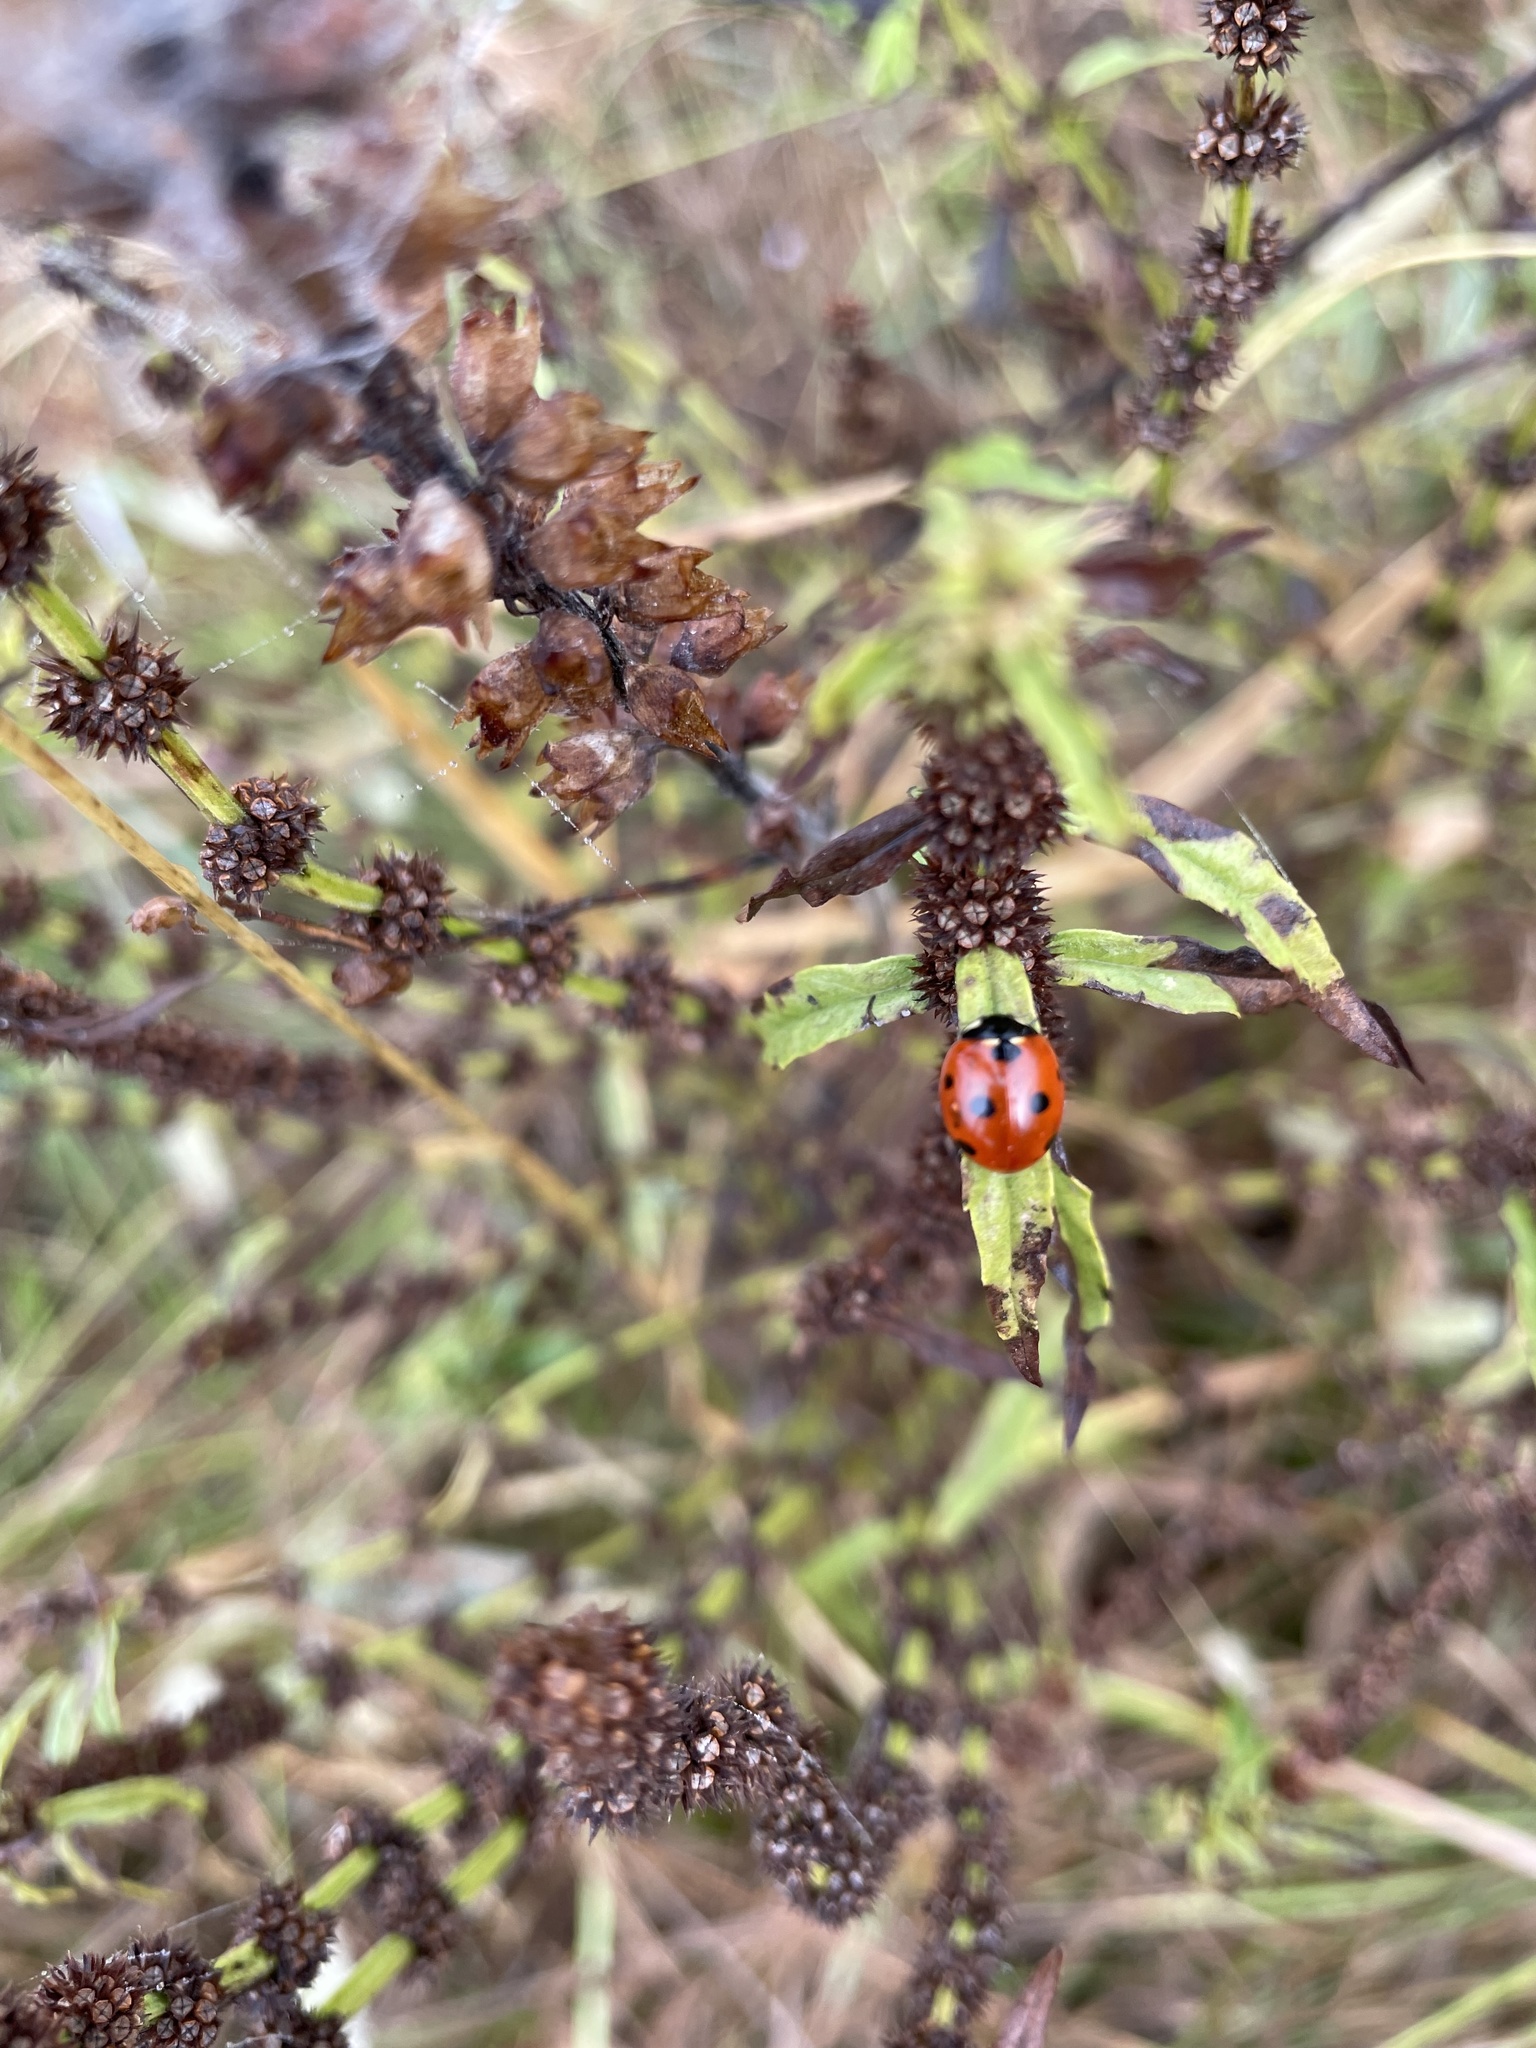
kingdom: Animalia
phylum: Arthropoda
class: Insecta
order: Coleoptera
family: Coccinellidae
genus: Coccinella
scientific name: Coccinella septempunctata
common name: Sevenspotted lady beetle
